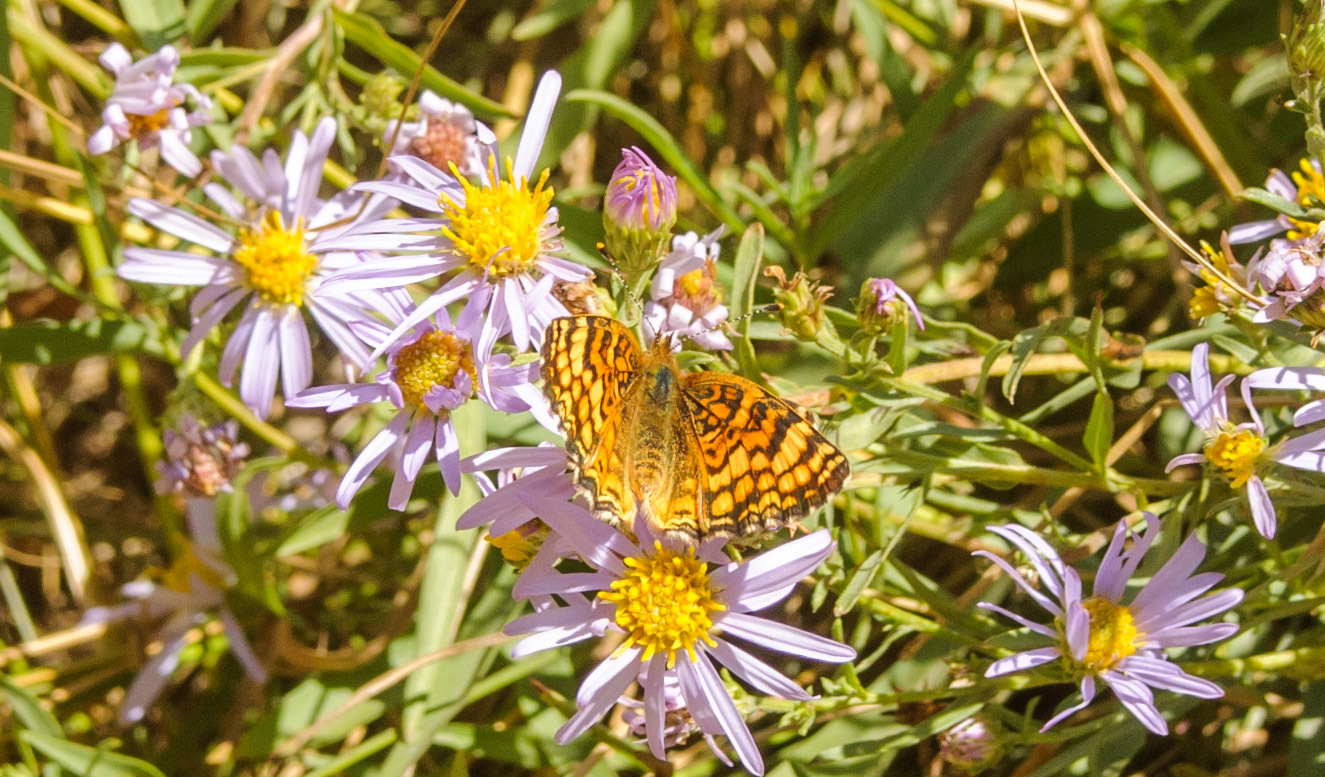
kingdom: Animalia
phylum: Arthropoda
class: Insecta
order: Lepidoptera
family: Nymphalidae
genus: Eresia
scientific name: Eresia aveyrona
